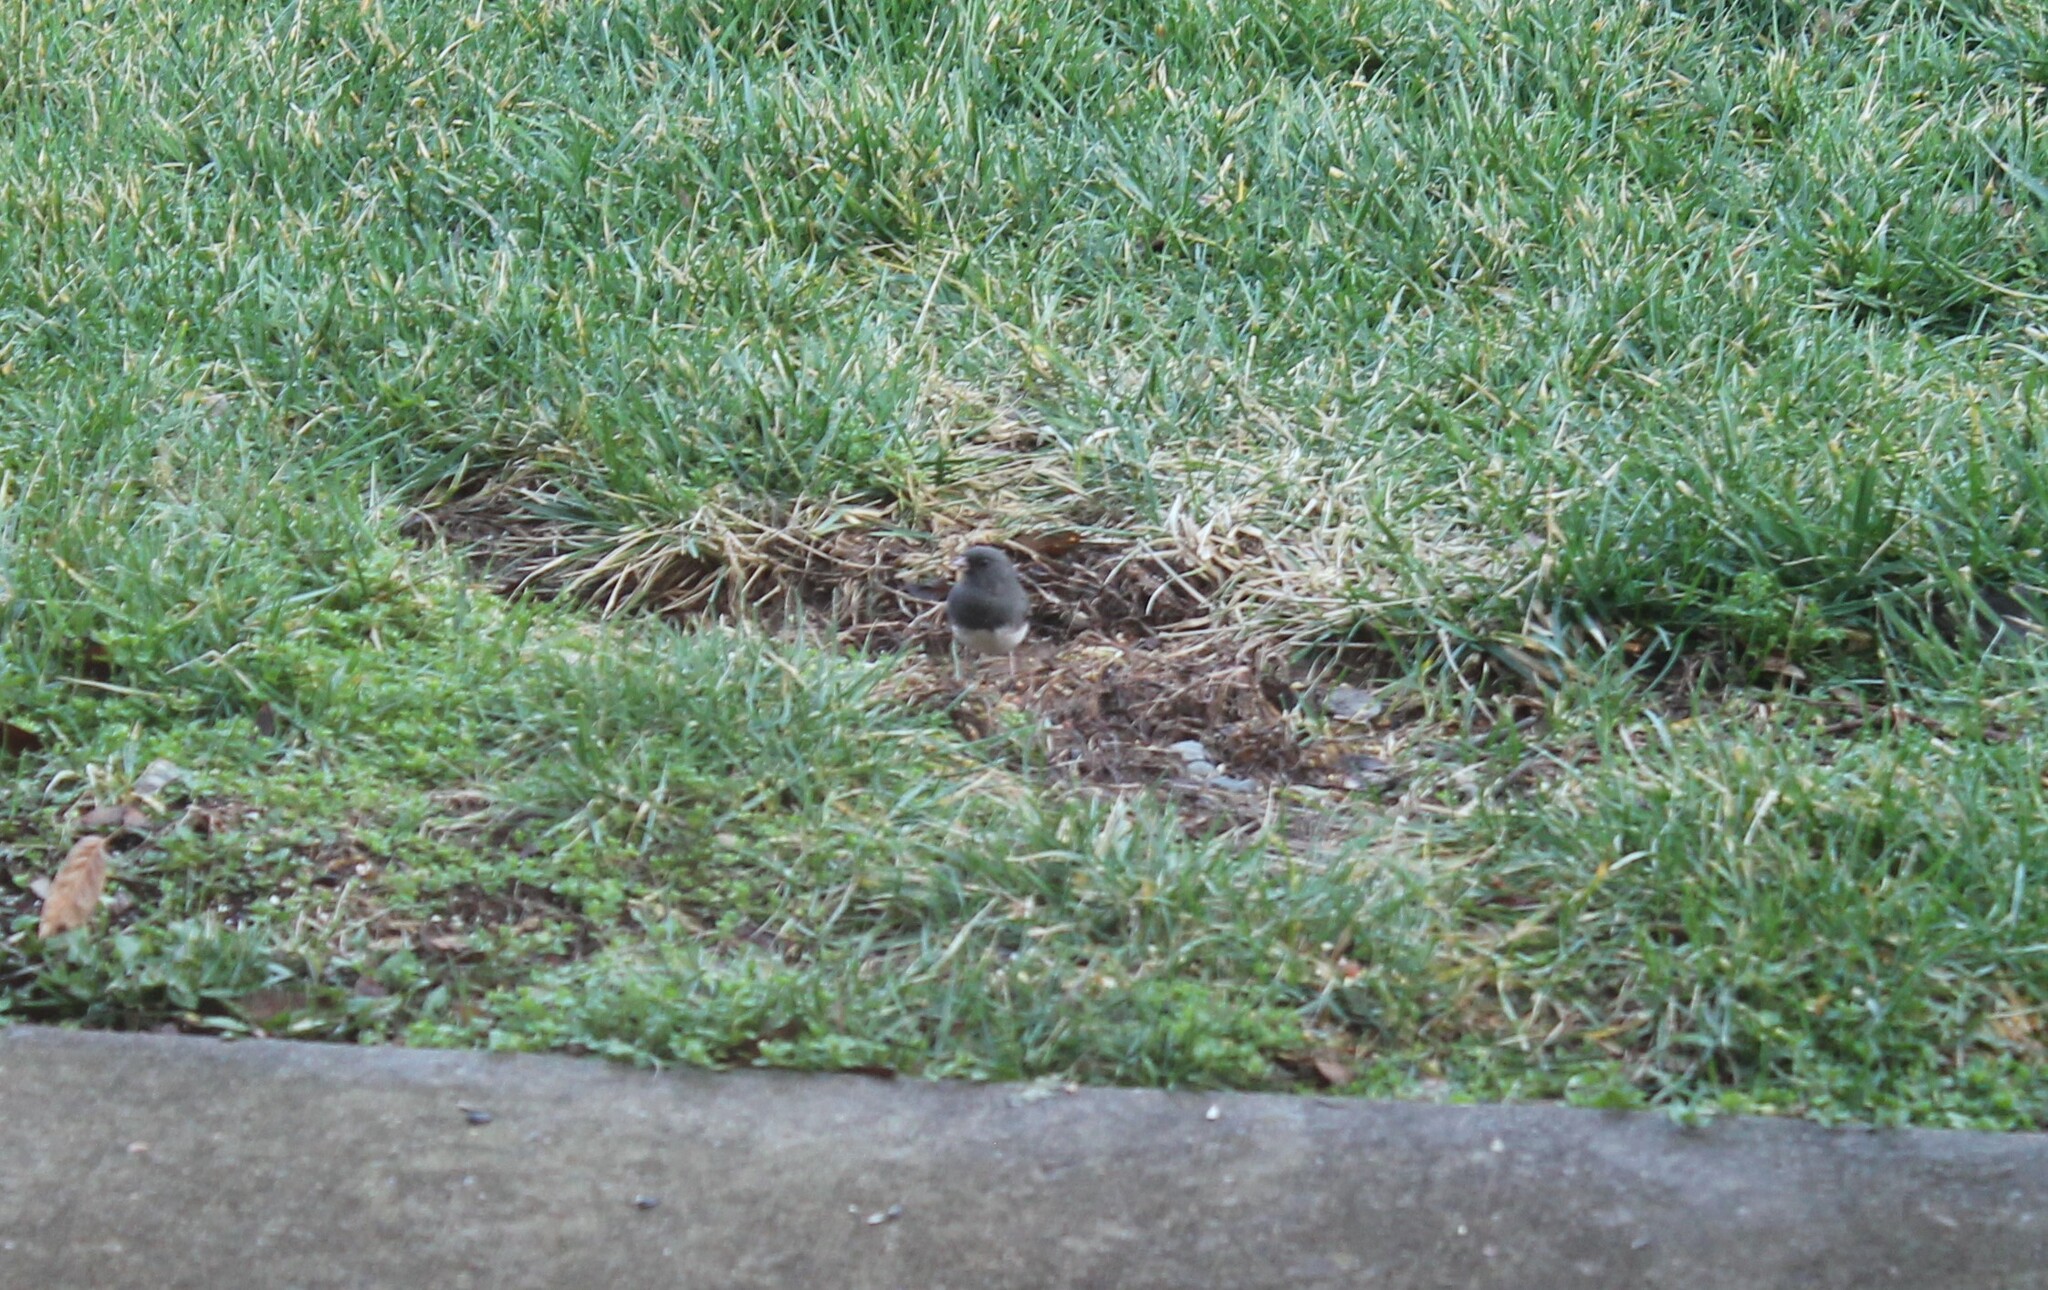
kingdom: Animalia
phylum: Chordata
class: Aves
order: Passeriformes
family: Passerellidae
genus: Junco
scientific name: Junco hyemalis
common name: Dark-eyed junco
